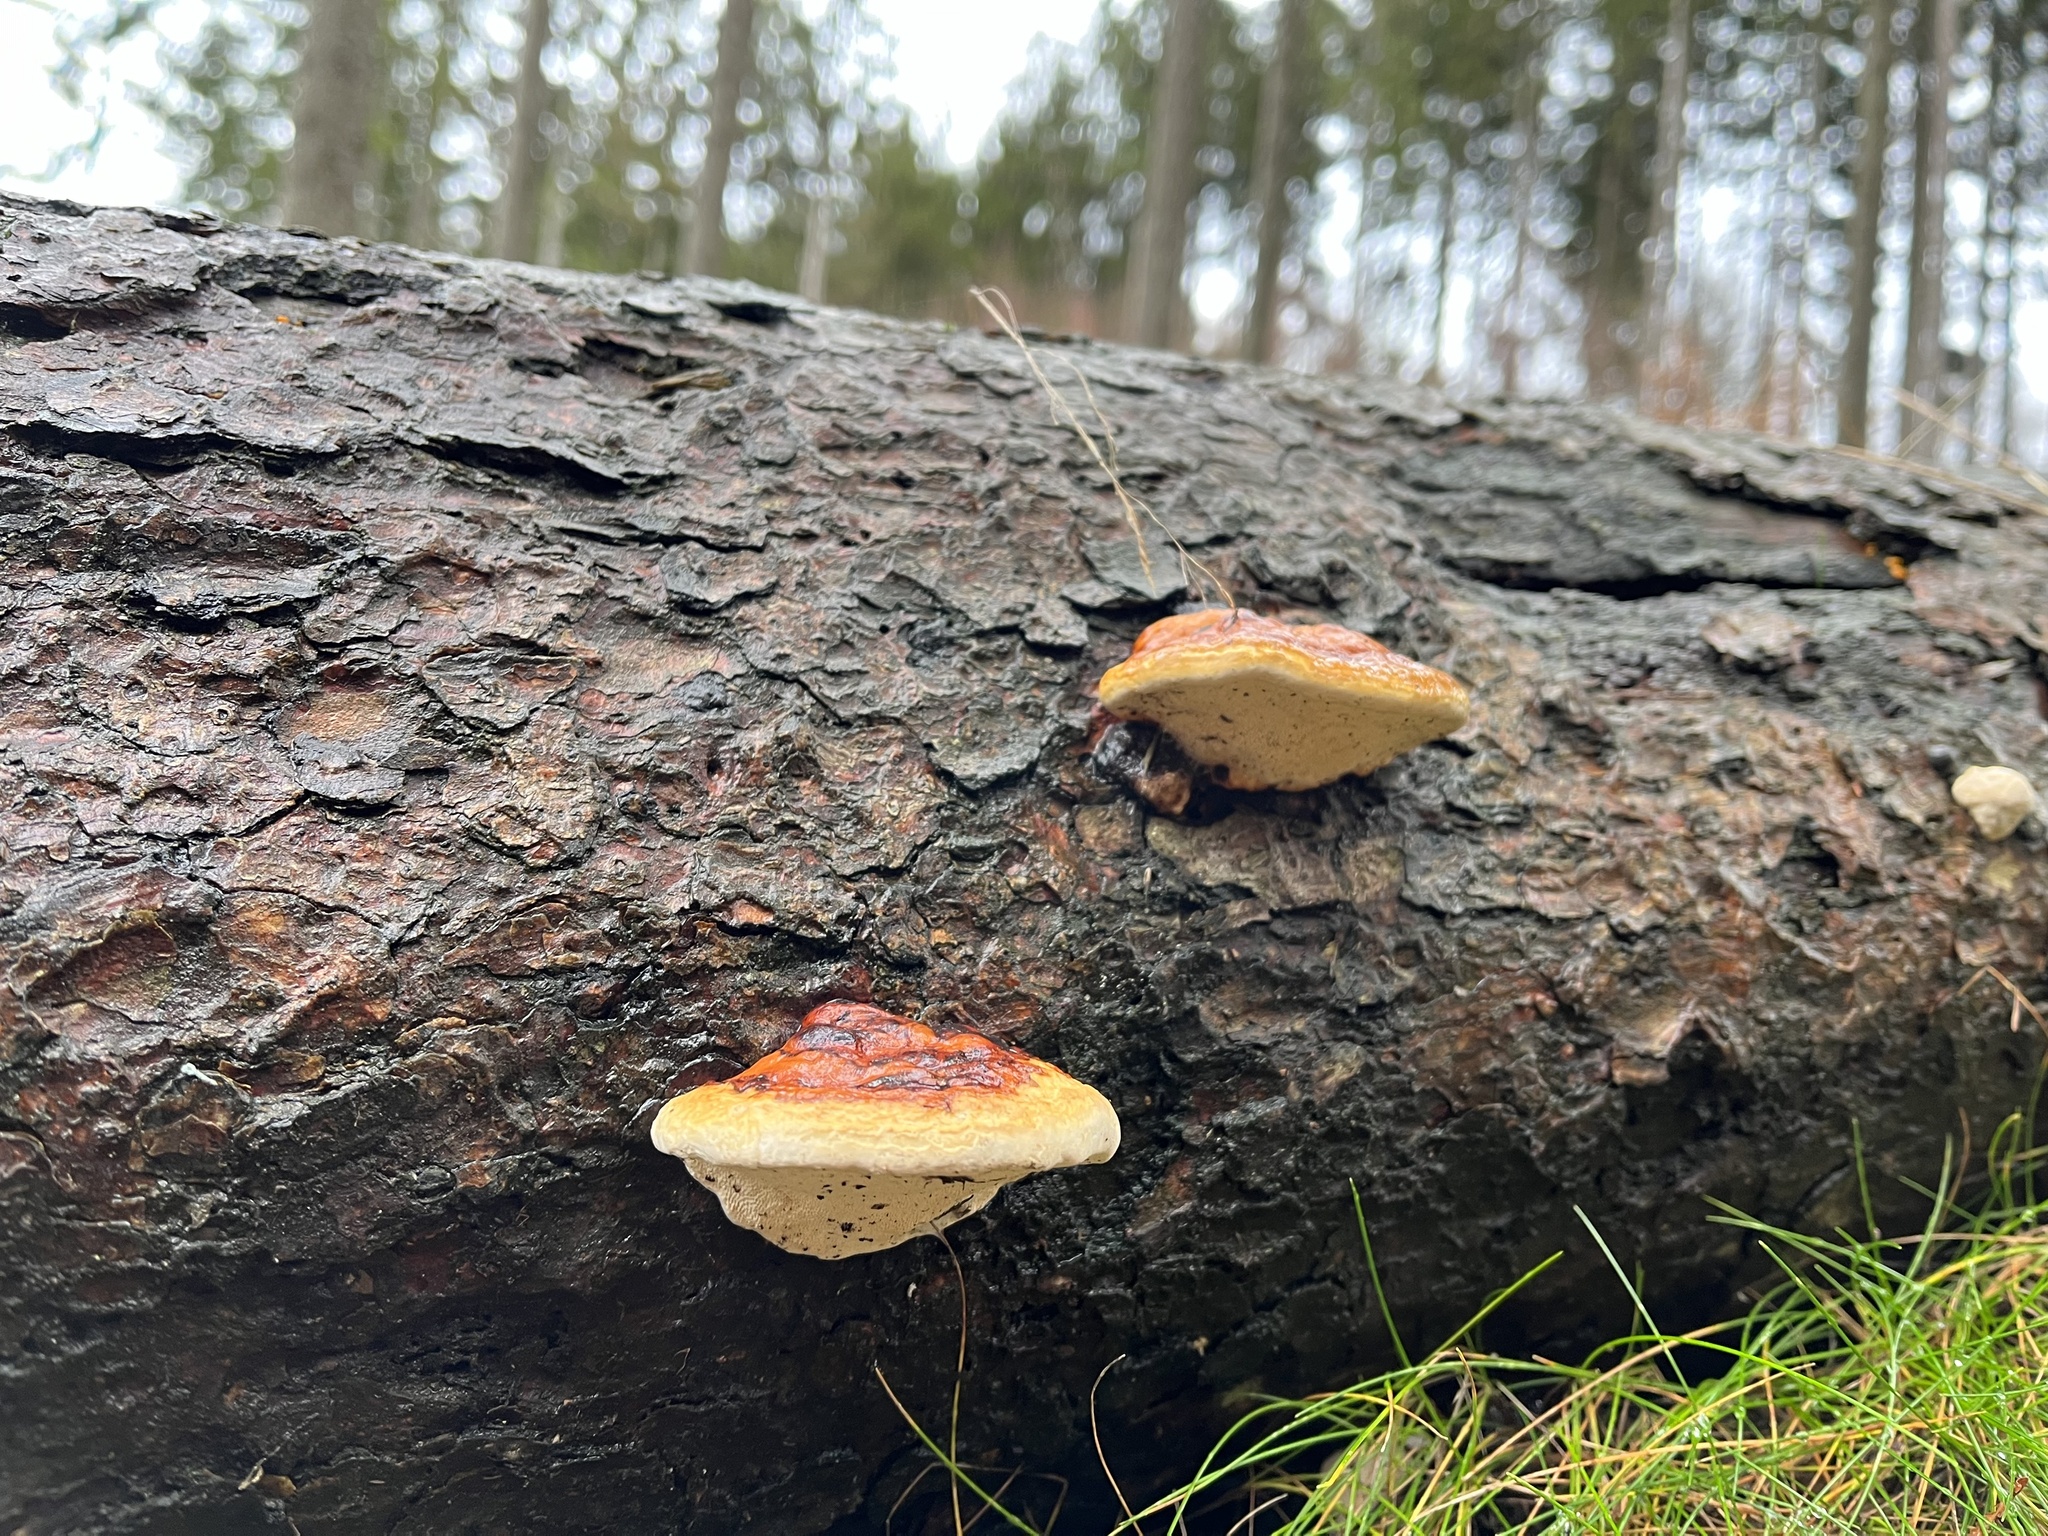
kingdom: Fungi
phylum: Basidiomycota
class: Agaricomycetes
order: Polyporales
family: Fomitopsidaceae
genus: Fomitopsis
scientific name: Fomitopsis pinicola
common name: Red-belted bracket
